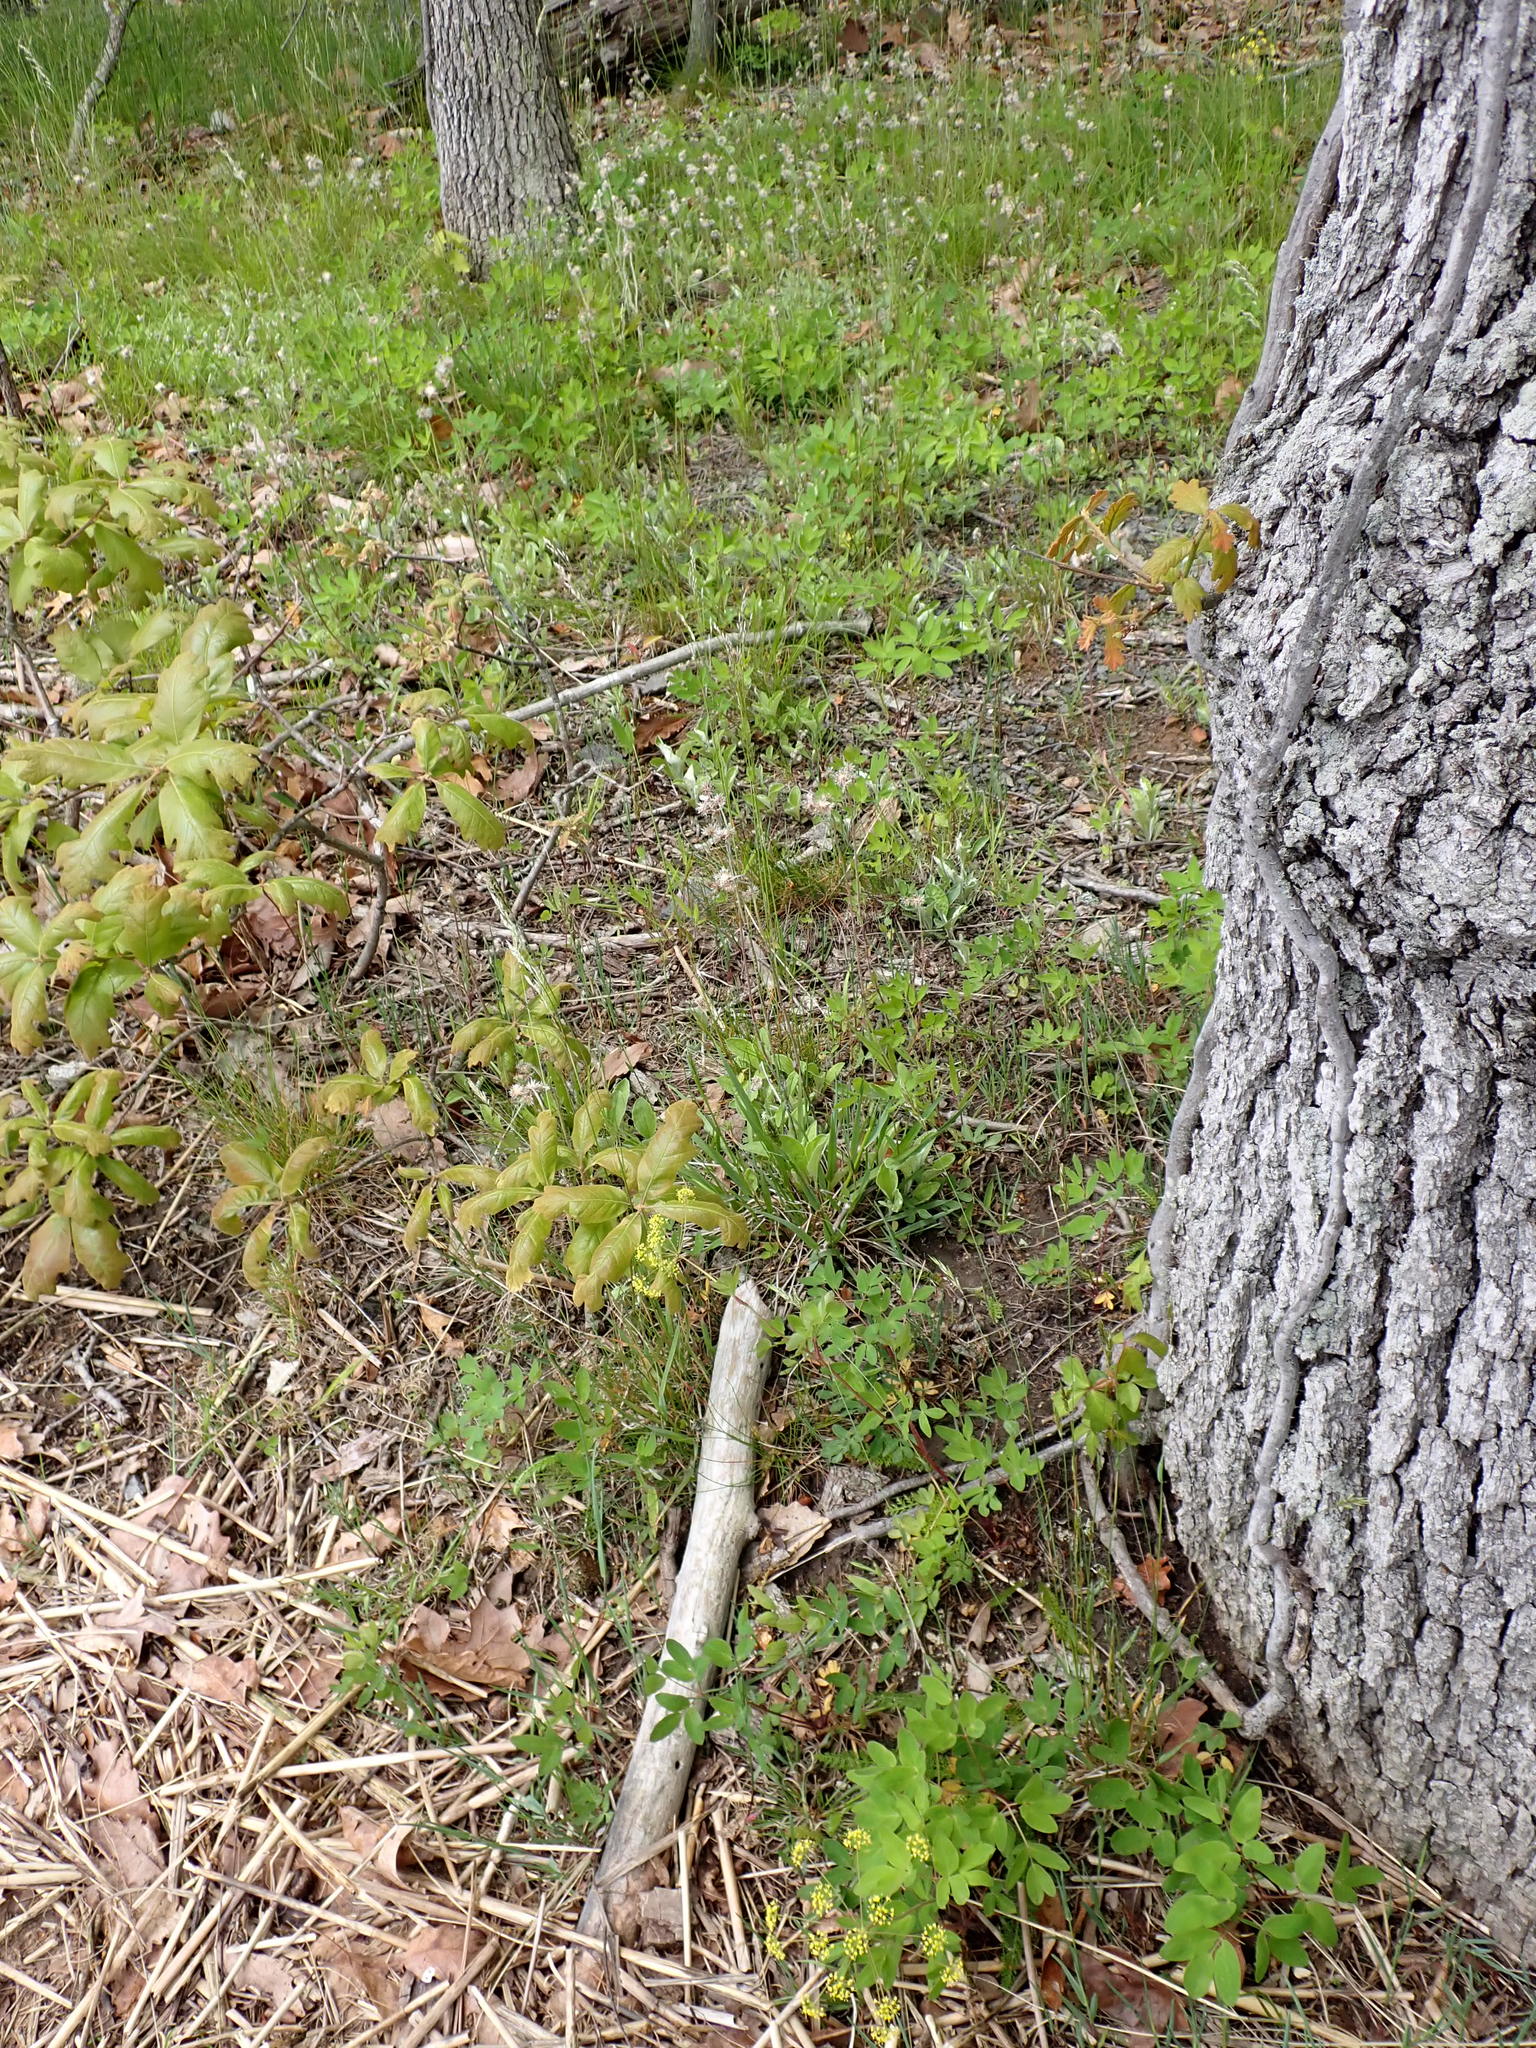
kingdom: Plantae
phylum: Tracheophyta
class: Magnoliopsida
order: Apiales
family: Apiaceae
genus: Taenidia
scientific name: Taenidia integerrima
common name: Golden alexander
